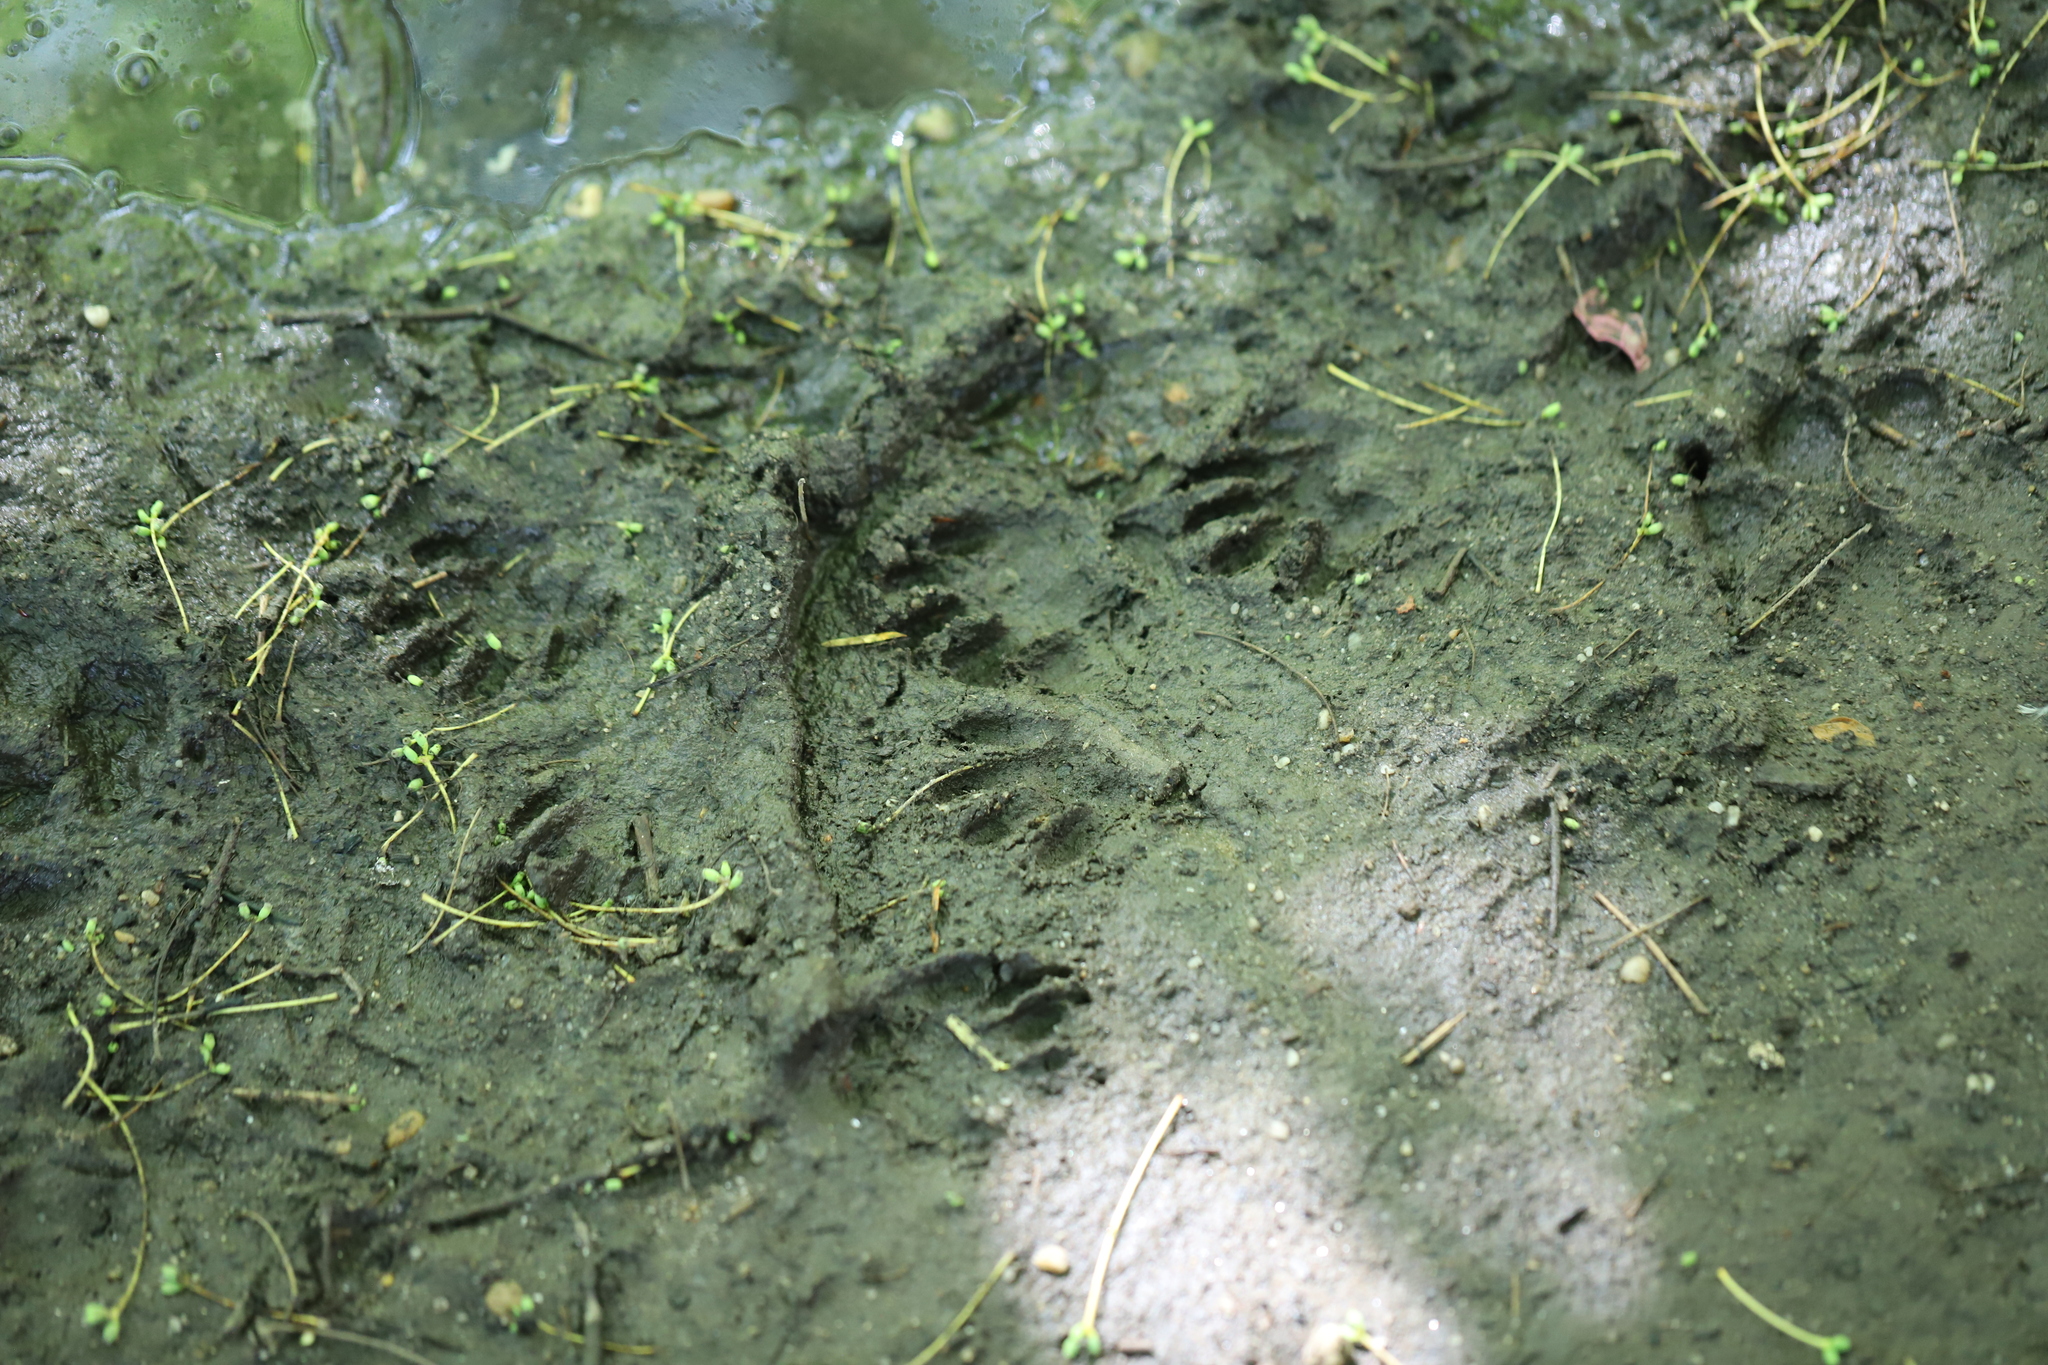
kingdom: Animalia
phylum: Chordata
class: Mammalia
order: Carnivora
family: Procyonidae
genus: Procyon
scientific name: Procyon lotor
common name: Raccoon
